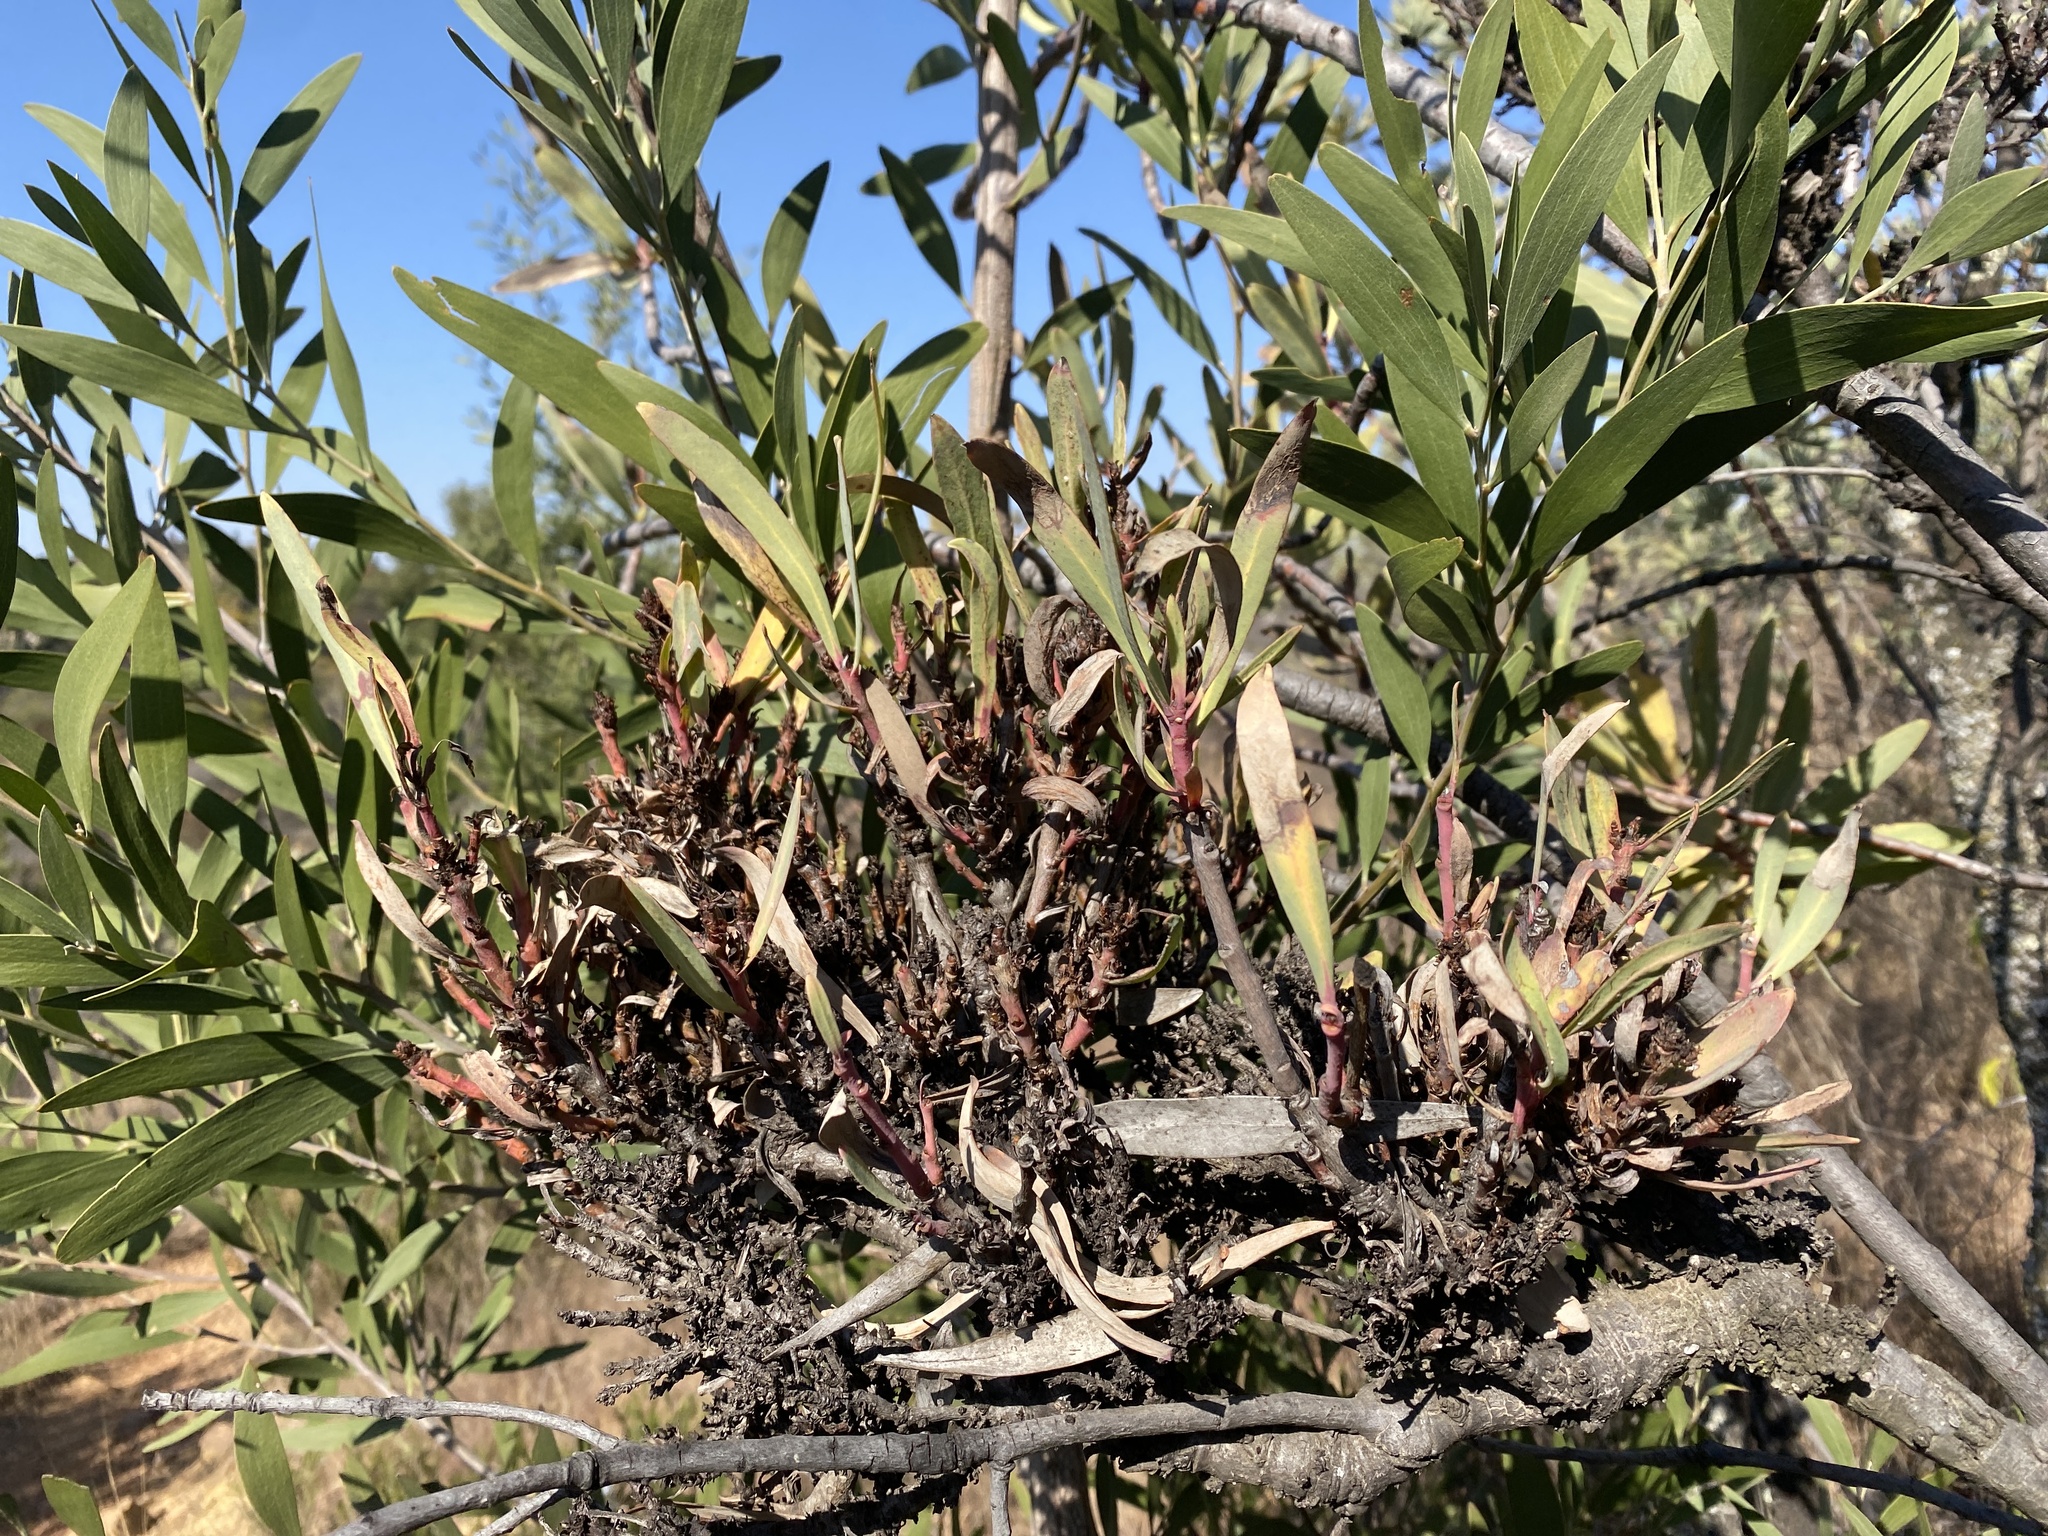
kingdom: Bacteria
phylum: Firmicutes
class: Bacilli
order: Acholeplasmatales
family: Acholeplasmataceae
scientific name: Acholeplasmataceae
